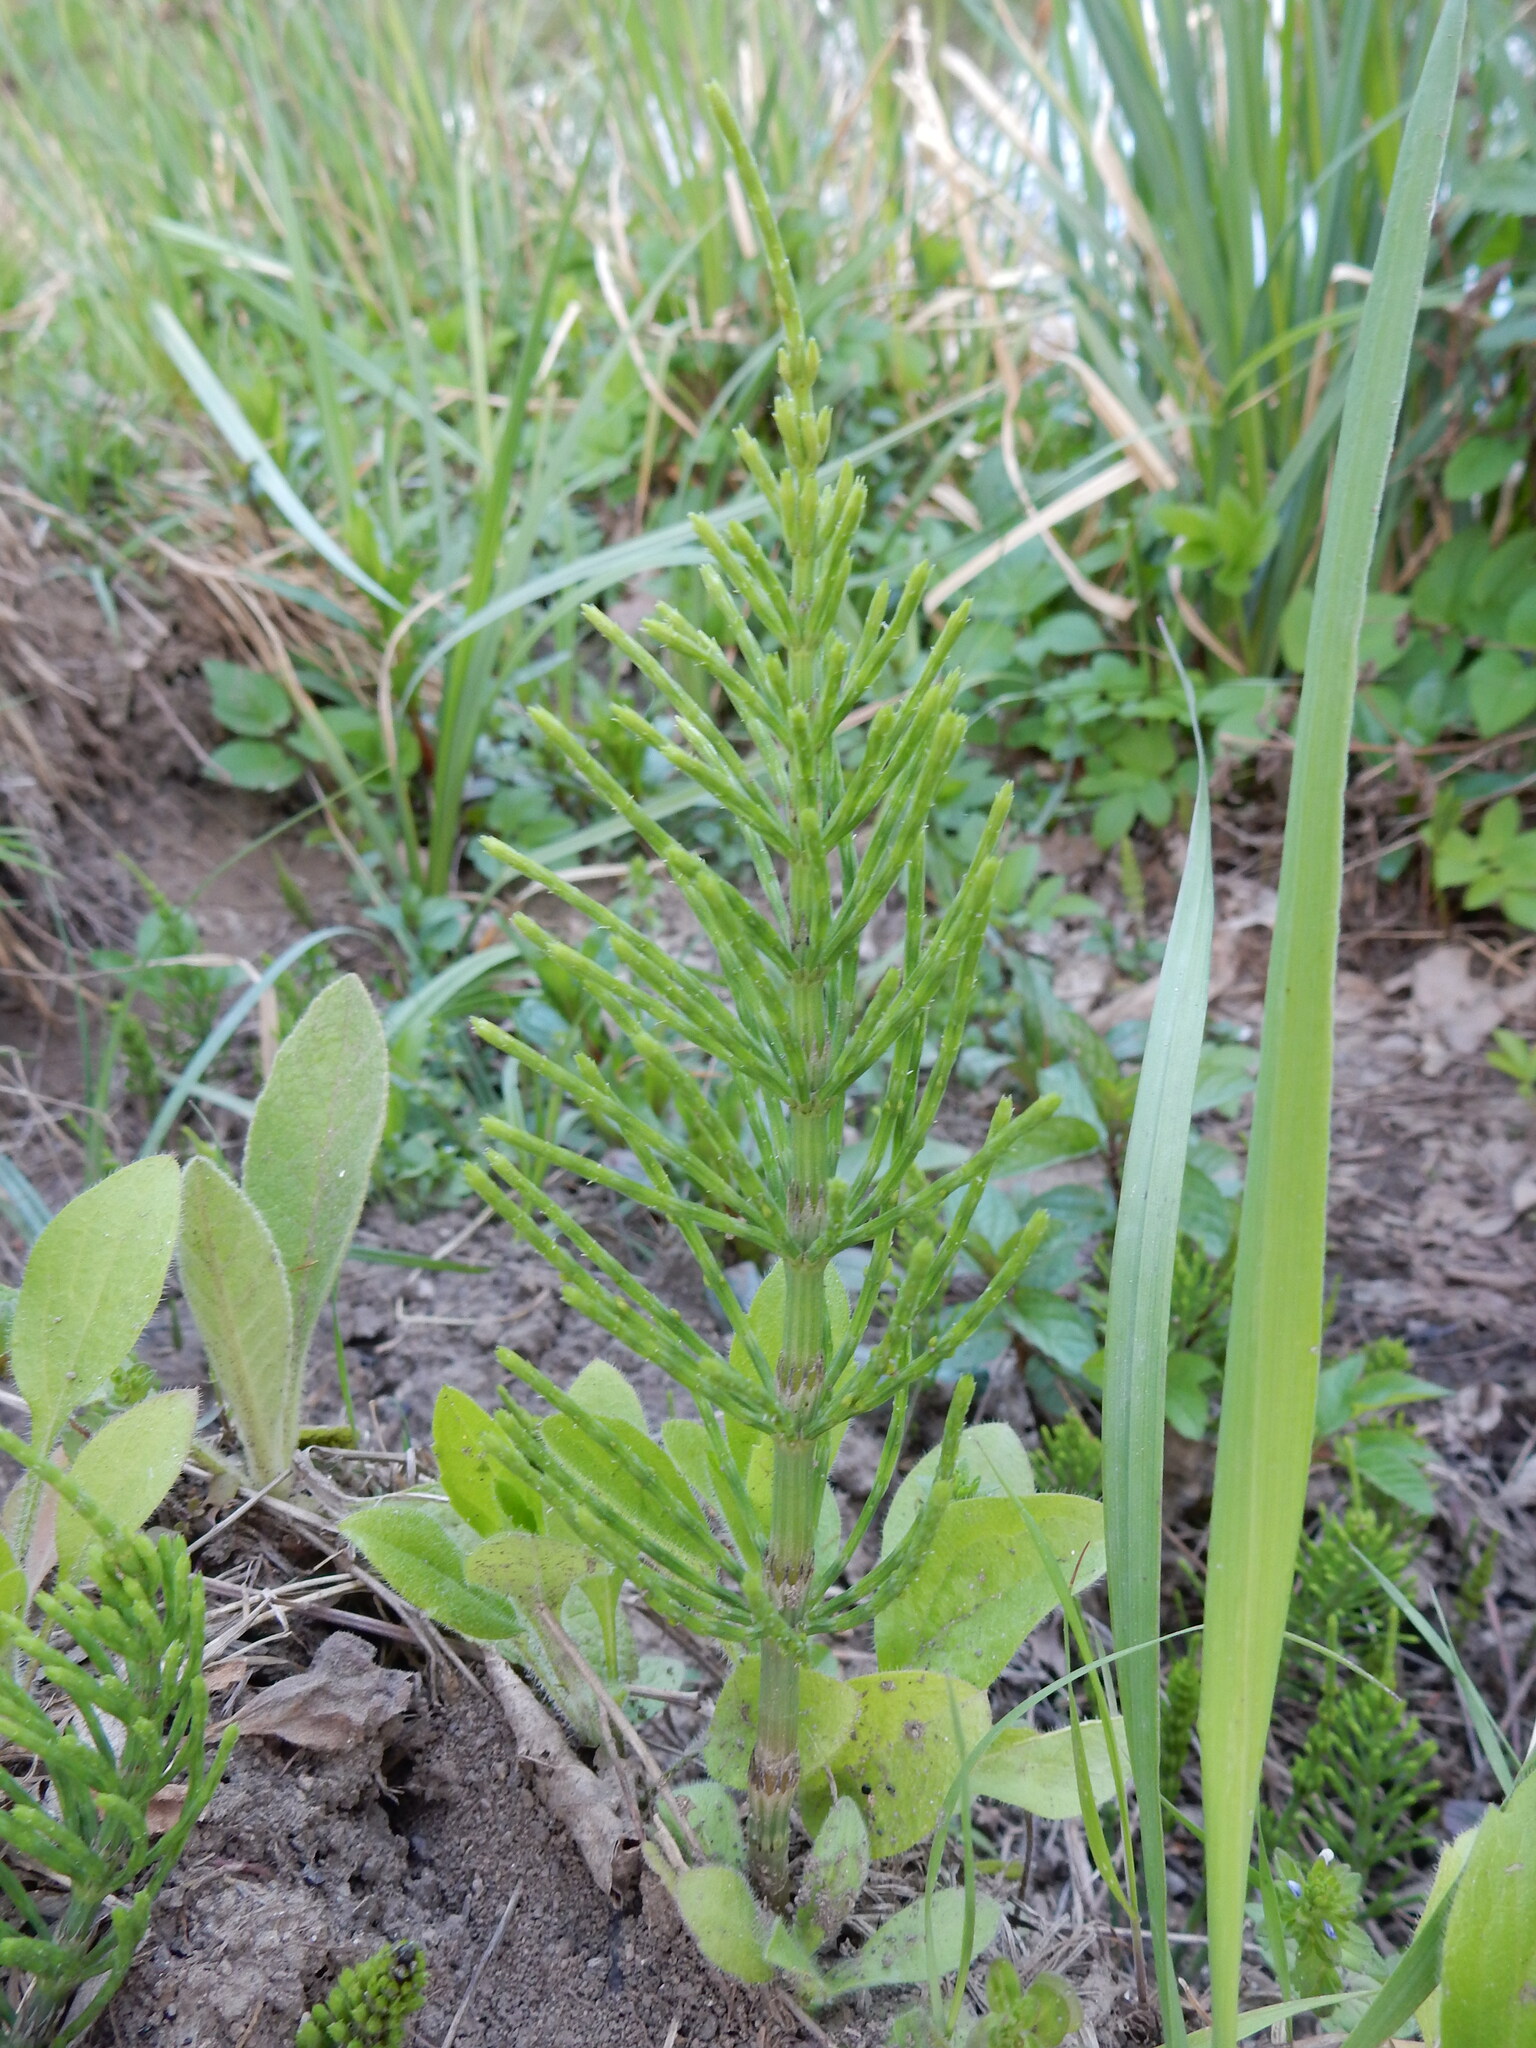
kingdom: Plantae
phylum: Tracheophyta
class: Polypodiopsida
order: Equisetales
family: Equisetaceae
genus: Equisetum
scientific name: Equisetum arvense
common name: Field horsetail
